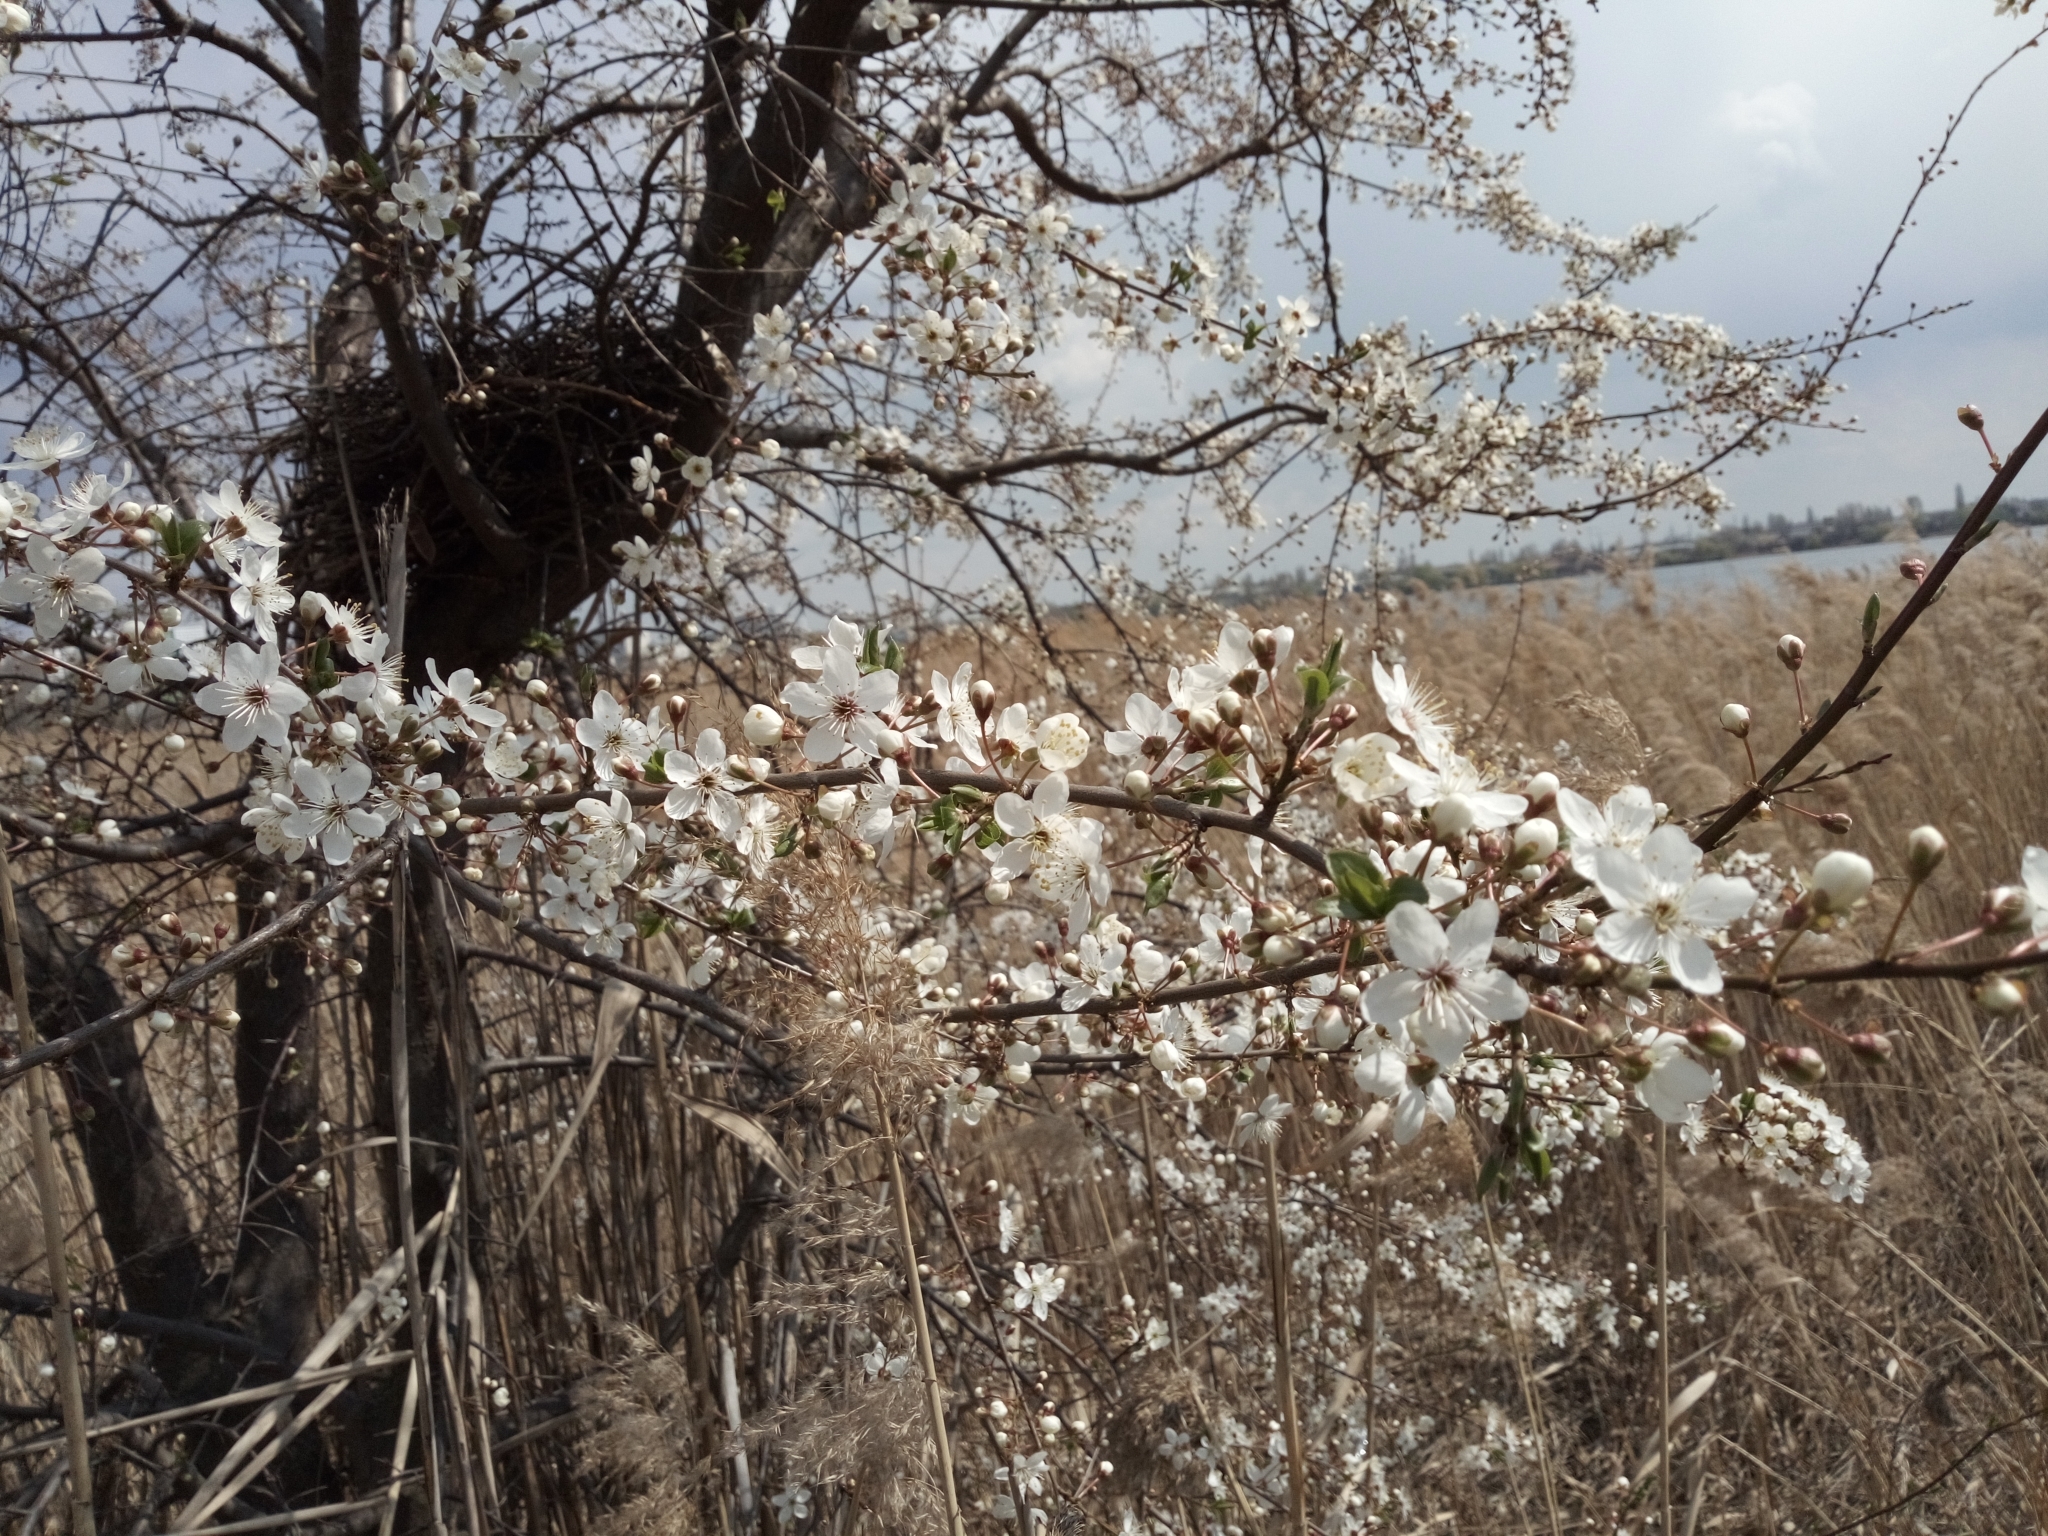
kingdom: Plantae
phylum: Tracheophyta
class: Magnoliopsida
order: Rosales
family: Rosaceae
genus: Prunus
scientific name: Prunus cerasifera
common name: Cherry plum
